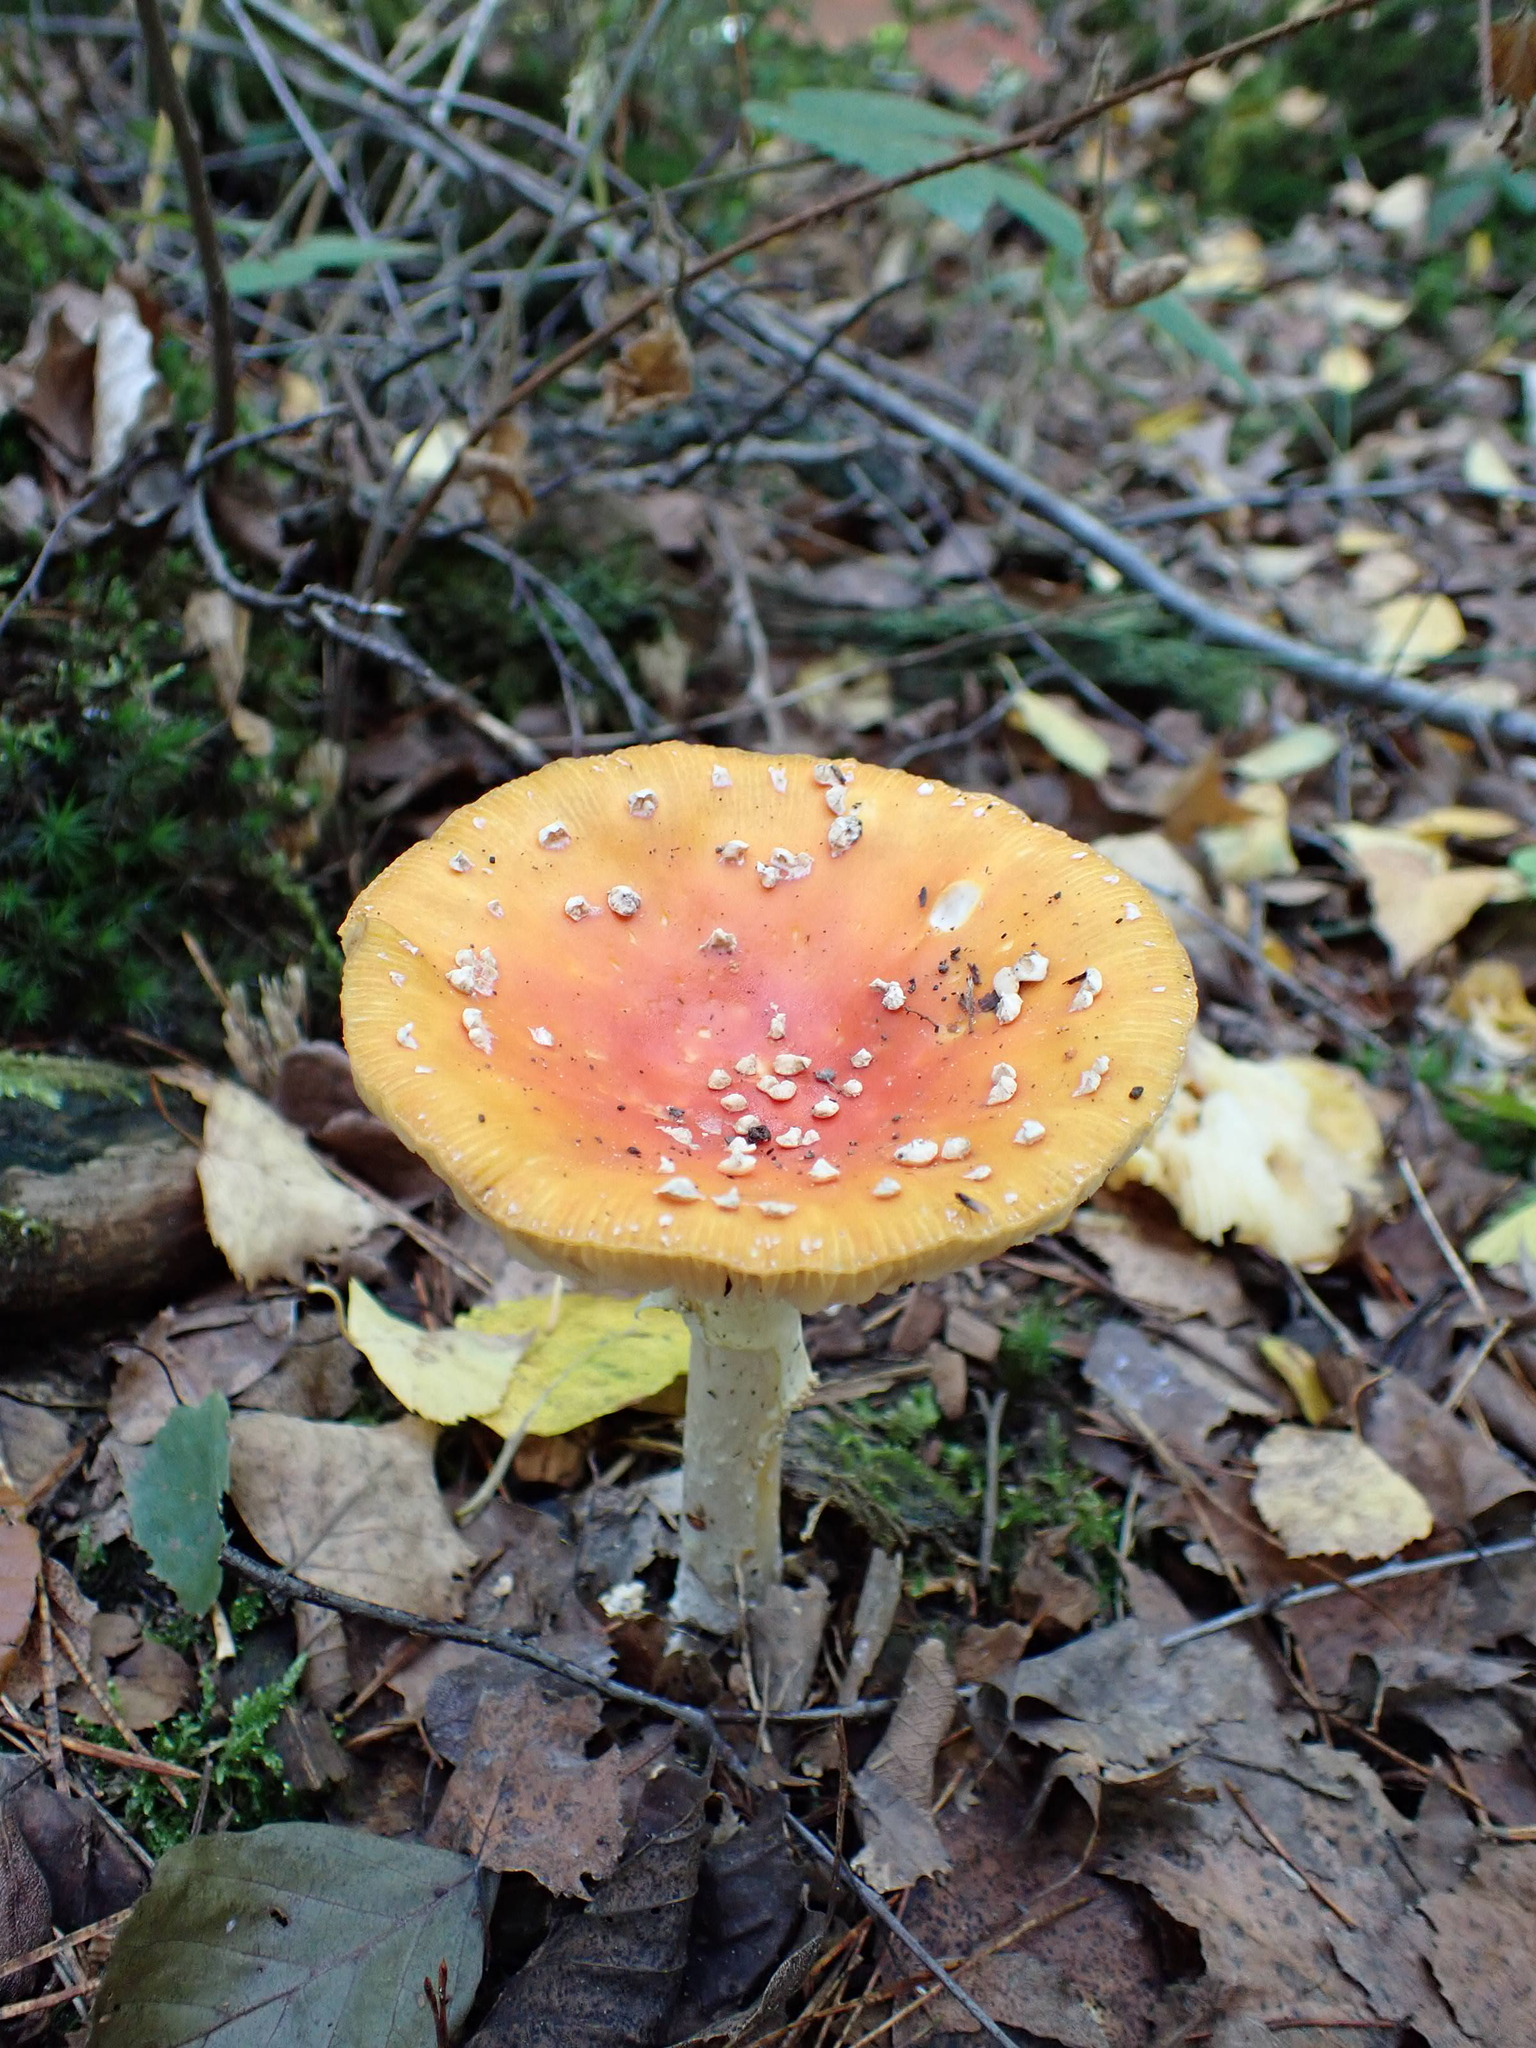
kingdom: Fungi
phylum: Basidiomycota
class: Agaricomycetes
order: Agaricales
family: Amanitaceae
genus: Amanita
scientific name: Amanita muscaria
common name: Fly agaric
